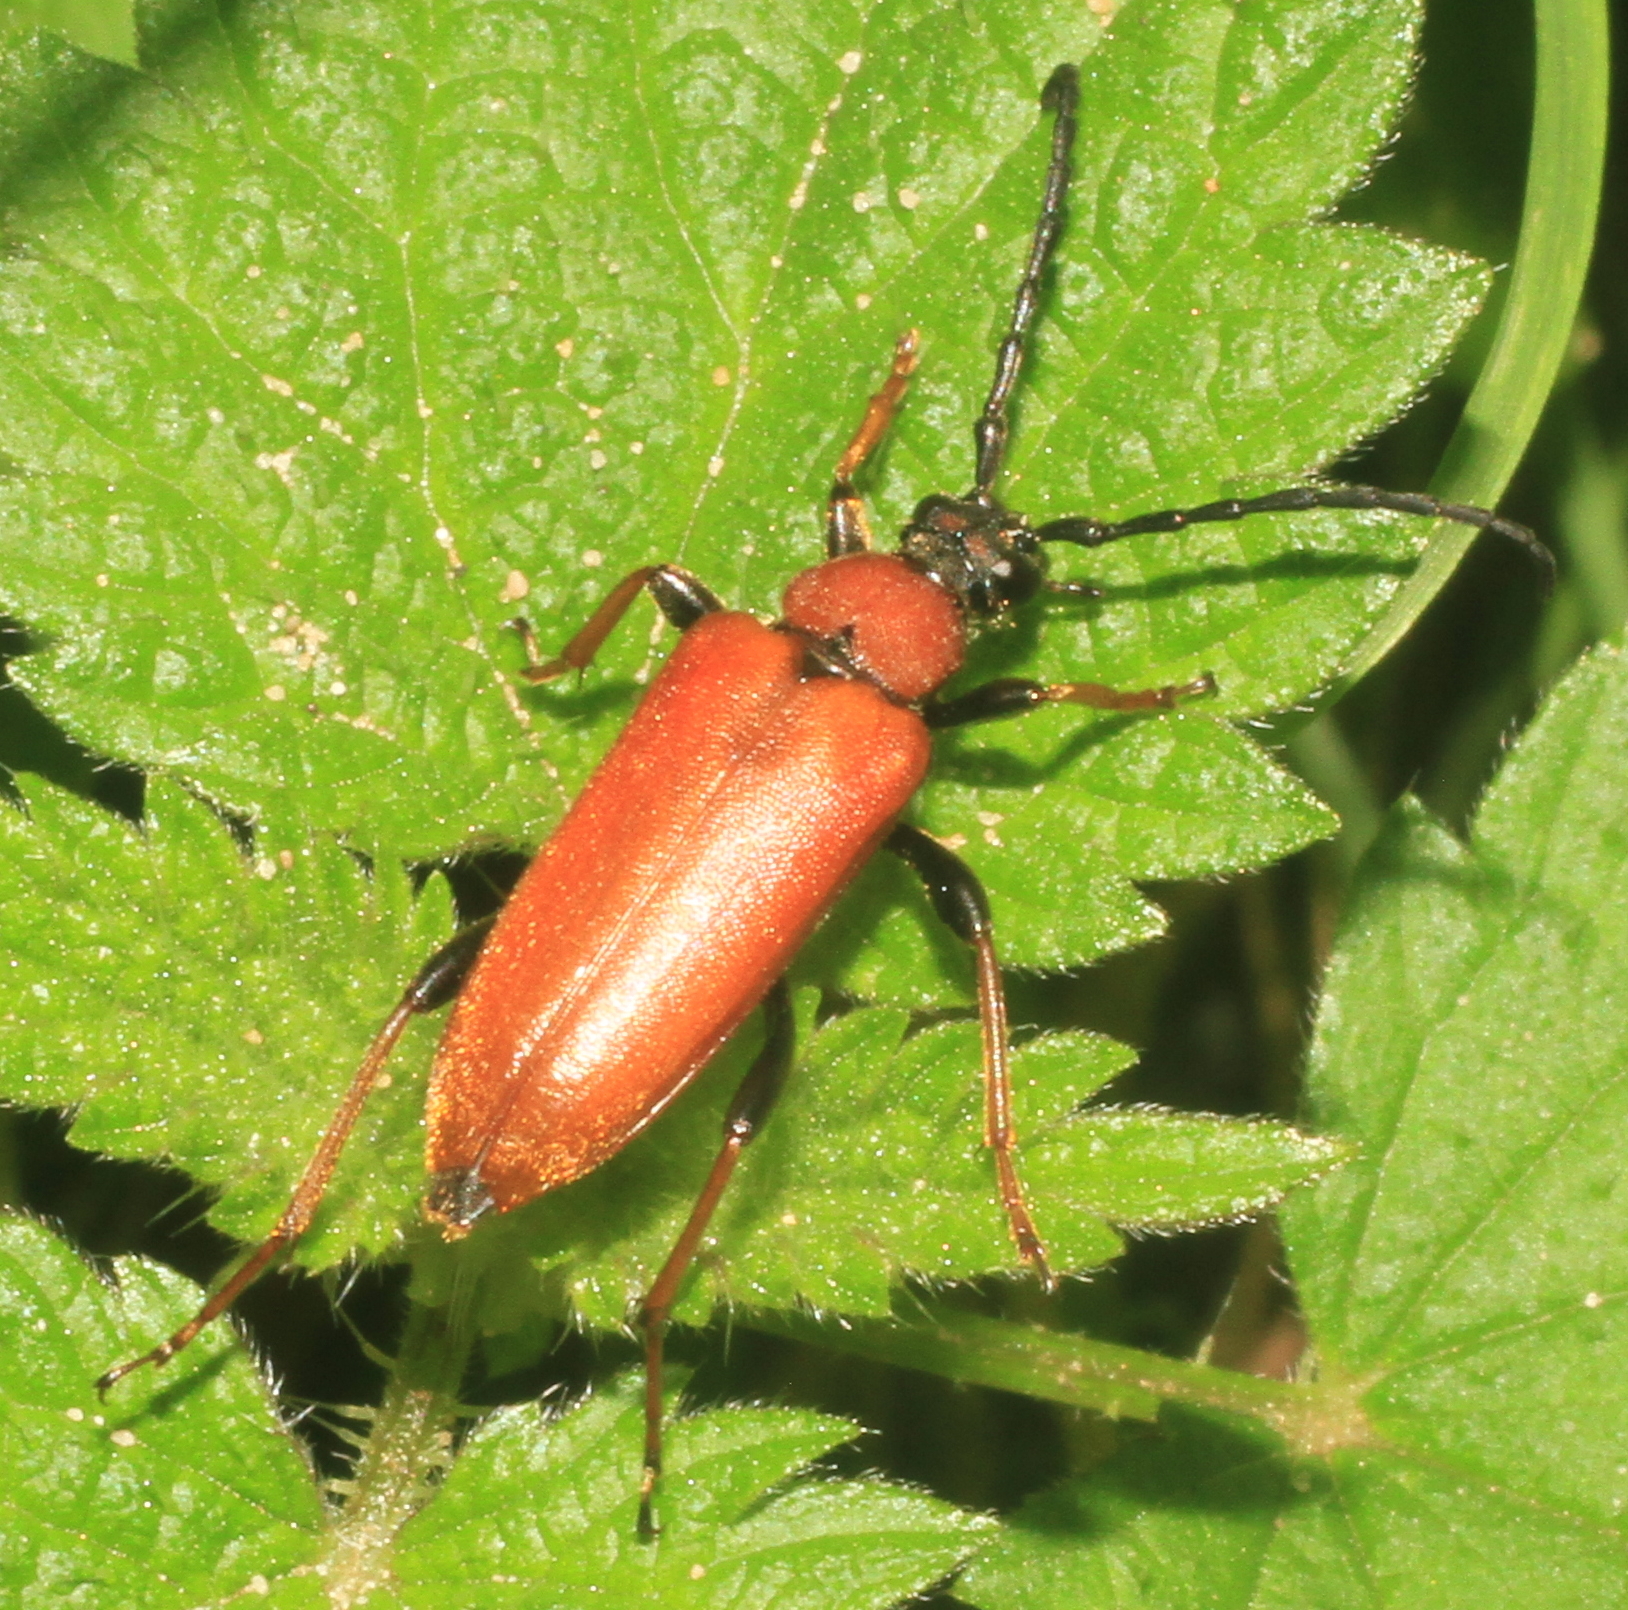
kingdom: Animalia
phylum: Arthropoda
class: Insecta
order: Coleoptera
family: Cerambycidae
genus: Stictoleptura
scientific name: Stictoleptura rubra
